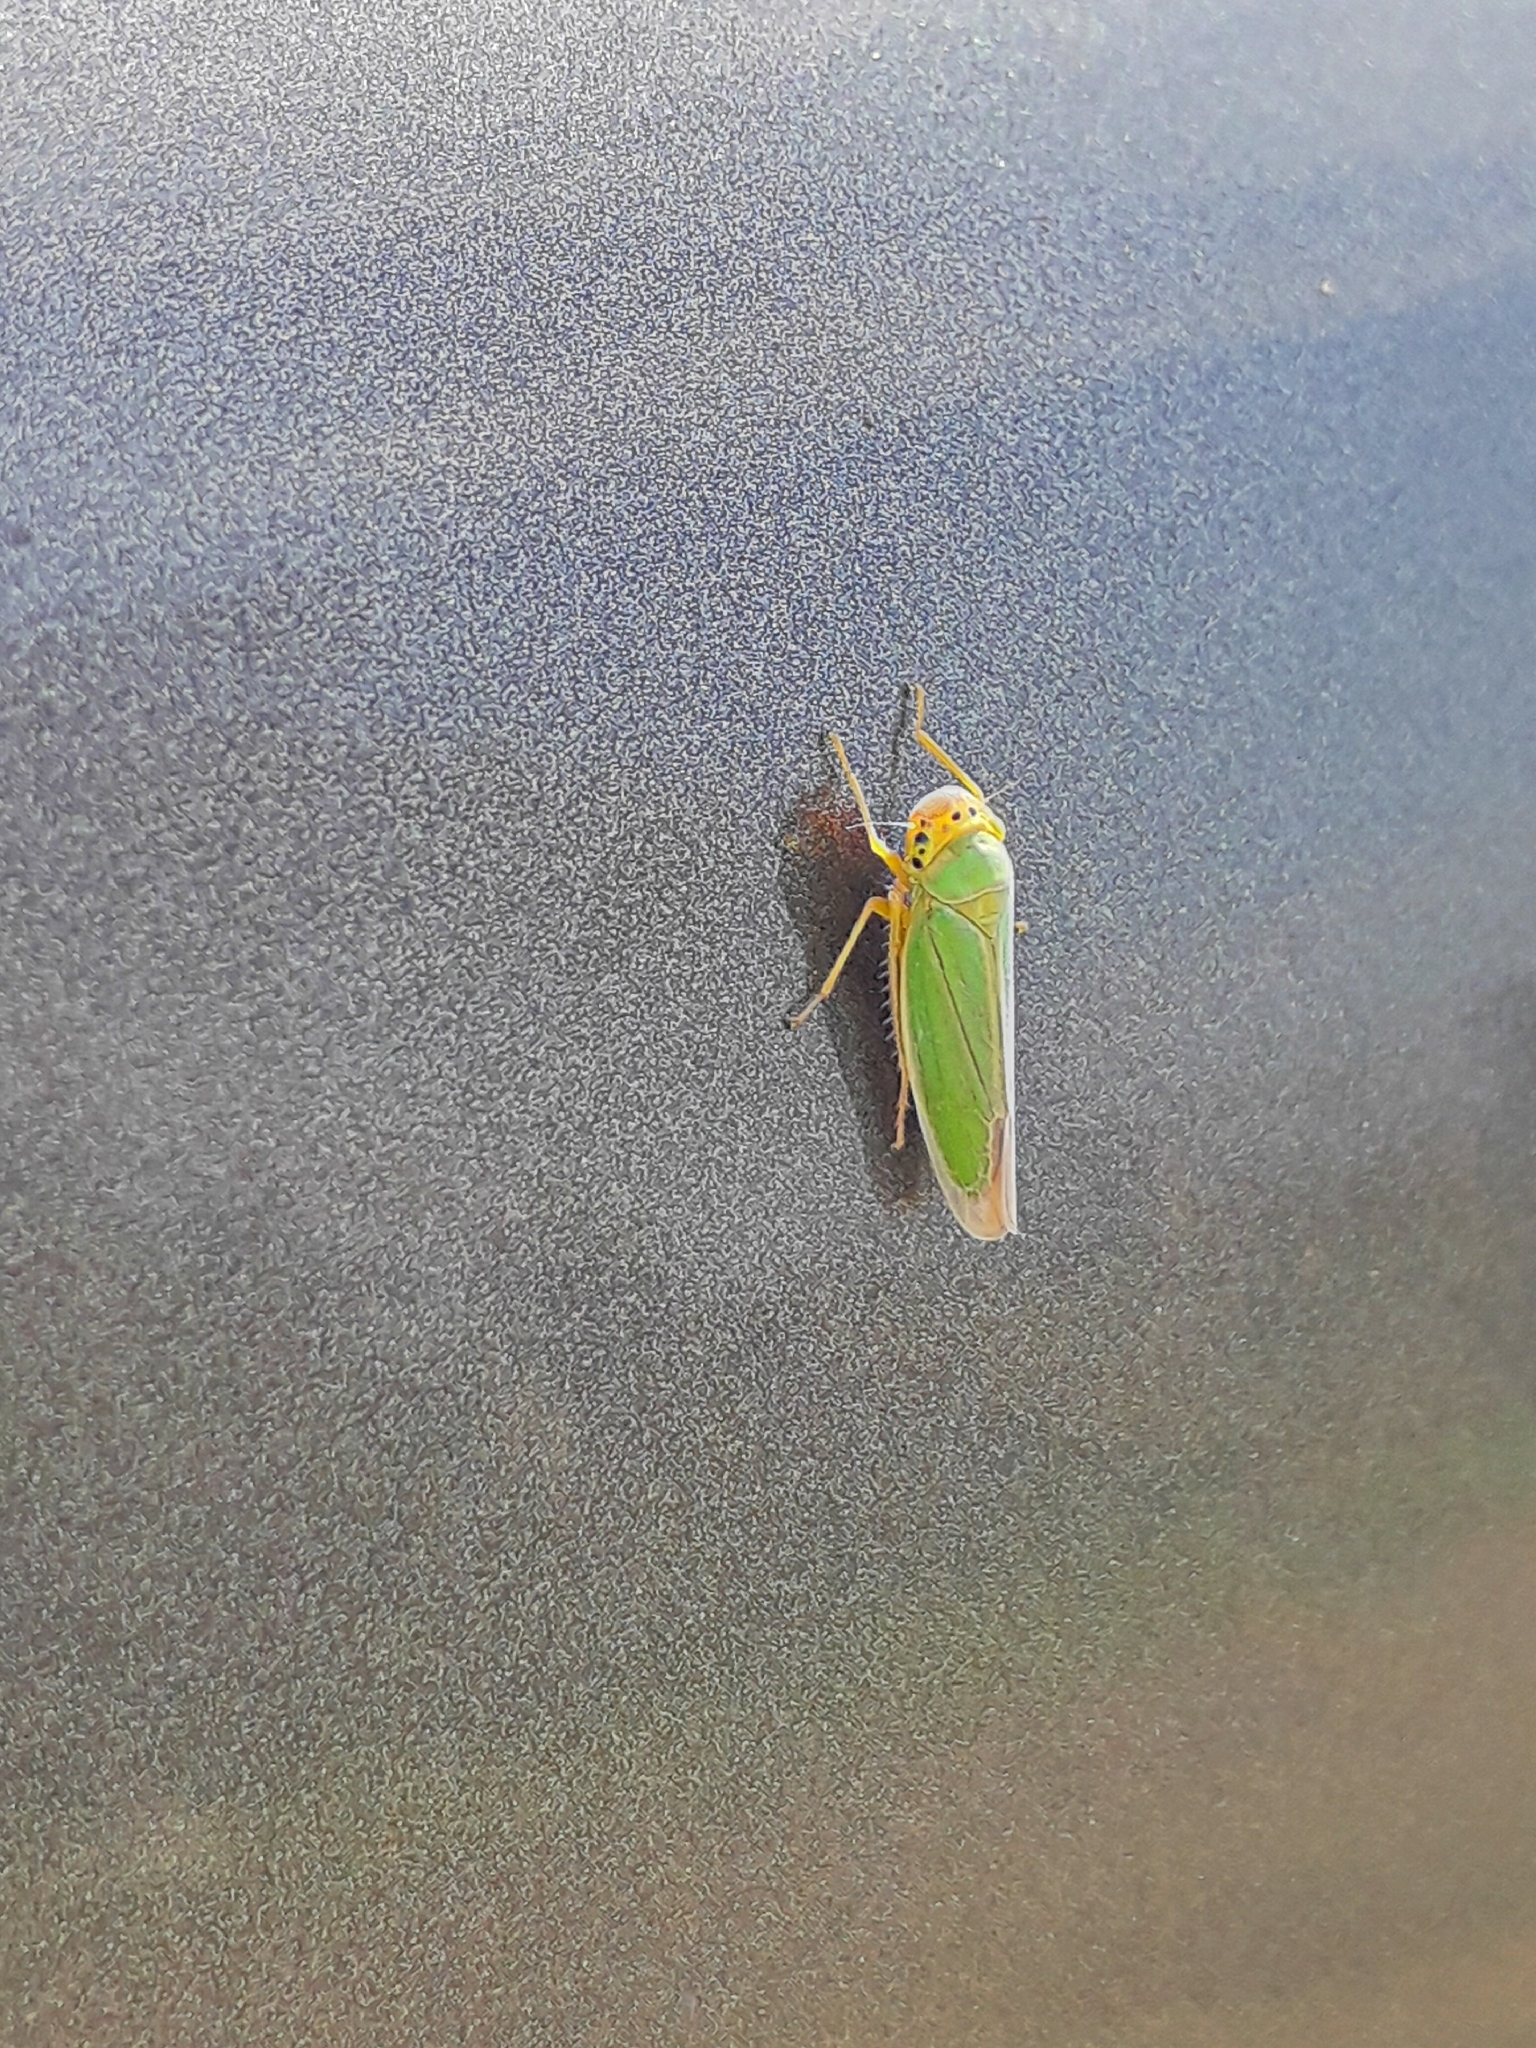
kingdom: Animalia
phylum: Arthropoda
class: Insecta
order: Hemiptera
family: Cicadellidae
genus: Cicadella
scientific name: Cicadella viridis
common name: Leafhopper
